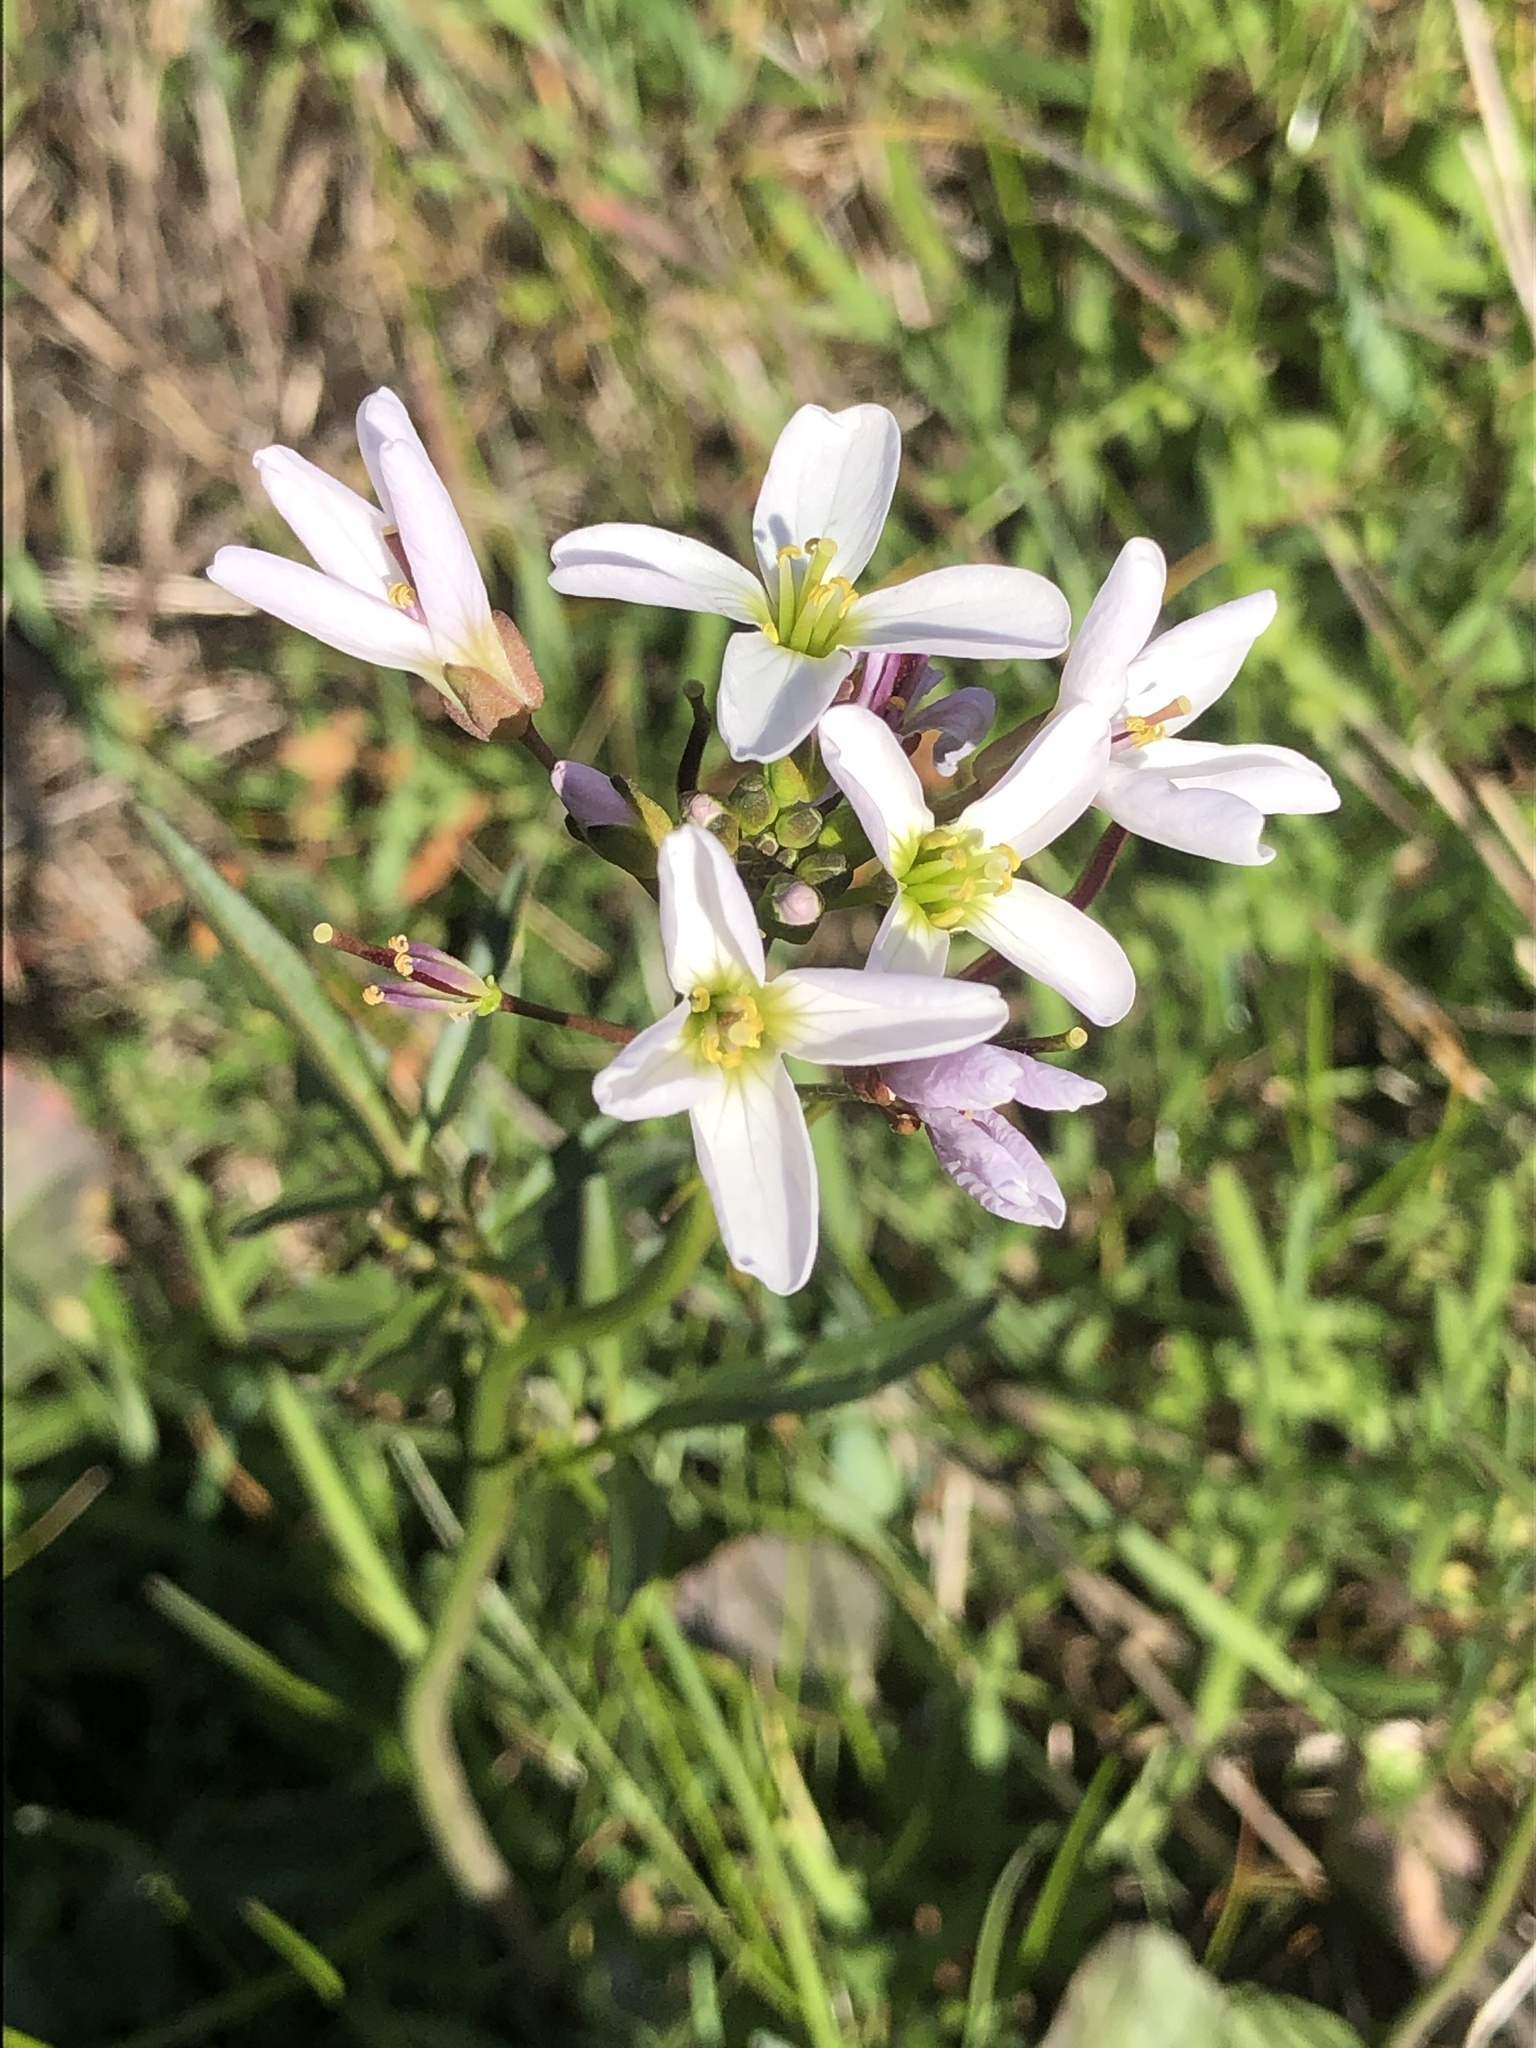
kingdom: Plantae
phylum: Tracheophyta
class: Magnoliopsida
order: Brassicales
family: Brassicaceae
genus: Cardamine
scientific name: Cardamine californica
